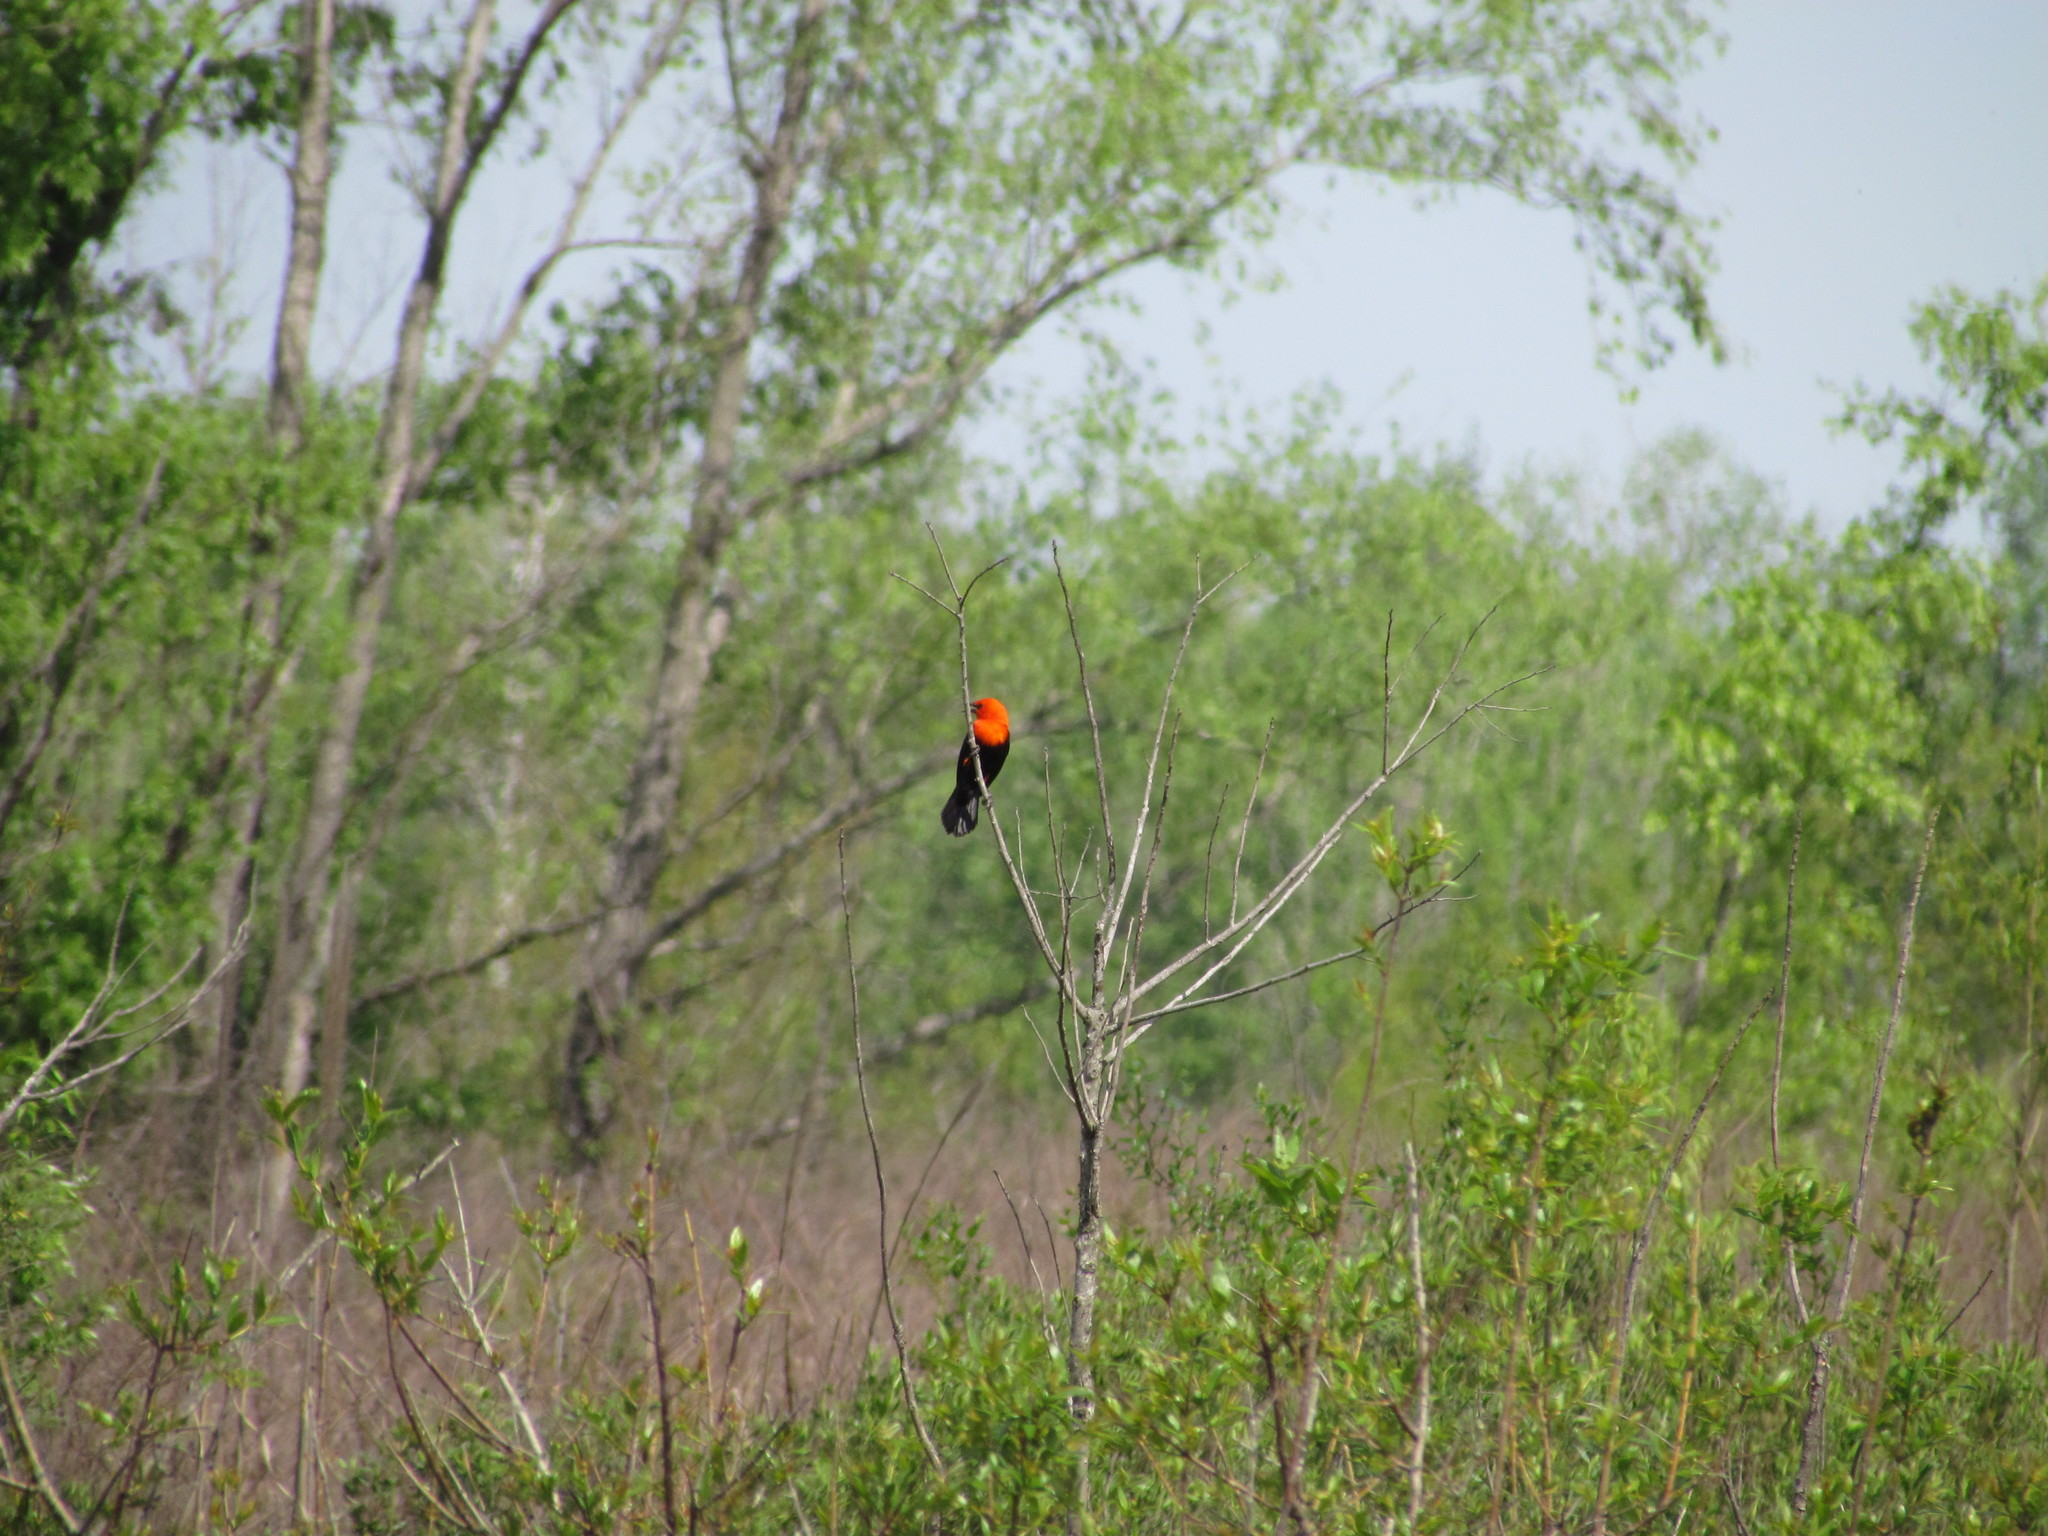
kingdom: Animalia
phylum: Chordata
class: Aves
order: Passeriformes
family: Icteridae
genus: Amblyramphus
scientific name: Amblyramphus holosericeus
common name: Scarlet-headed blackbird
